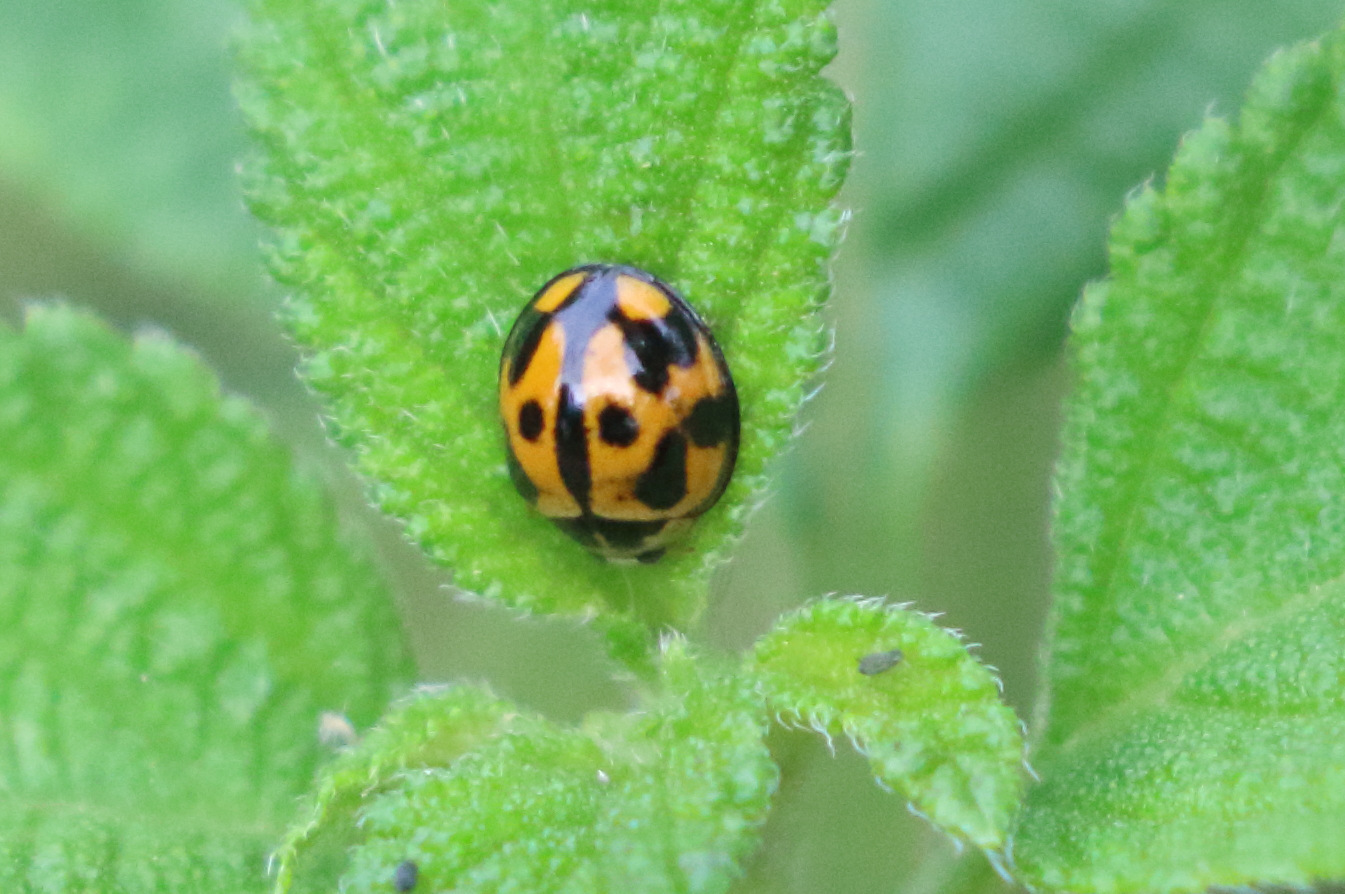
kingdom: Animalia
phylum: Arthropoda
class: Insecta
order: Coleoptera
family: Coccinellidae
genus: Coelophora
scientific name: Coelophora inaequalis
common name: Common australian lady beetle
